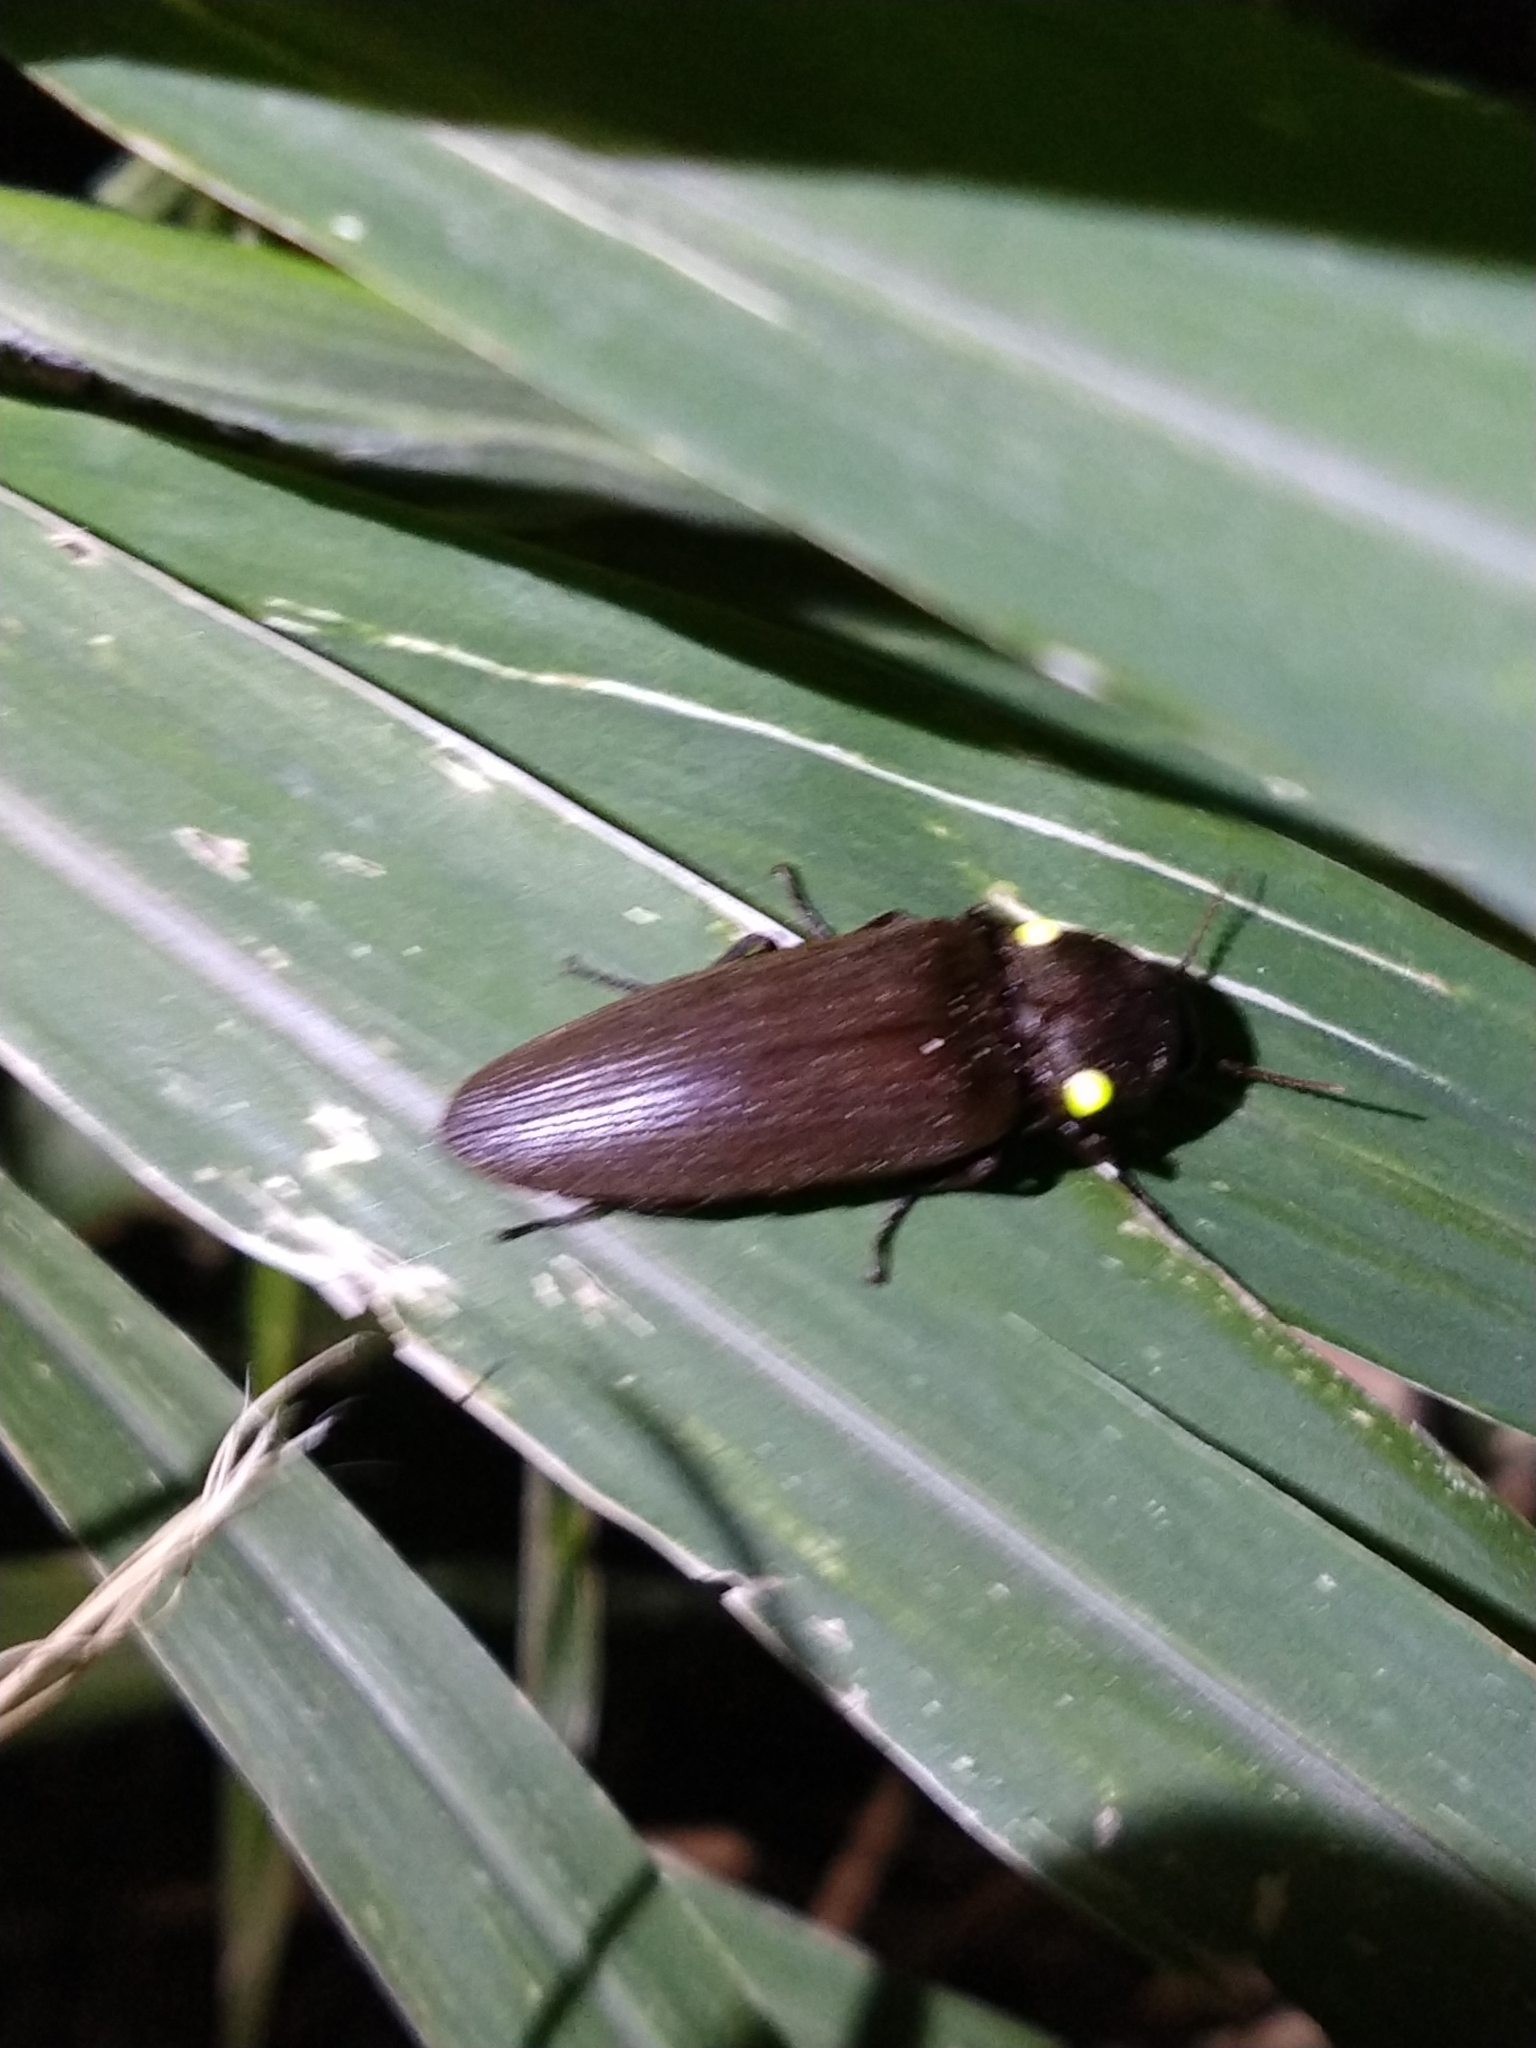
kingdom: Animalia
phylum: Arthropoda
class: Insecta
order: Coleoptera
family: Elateridae
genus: Pyrophorus
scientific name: Pyrophorus
